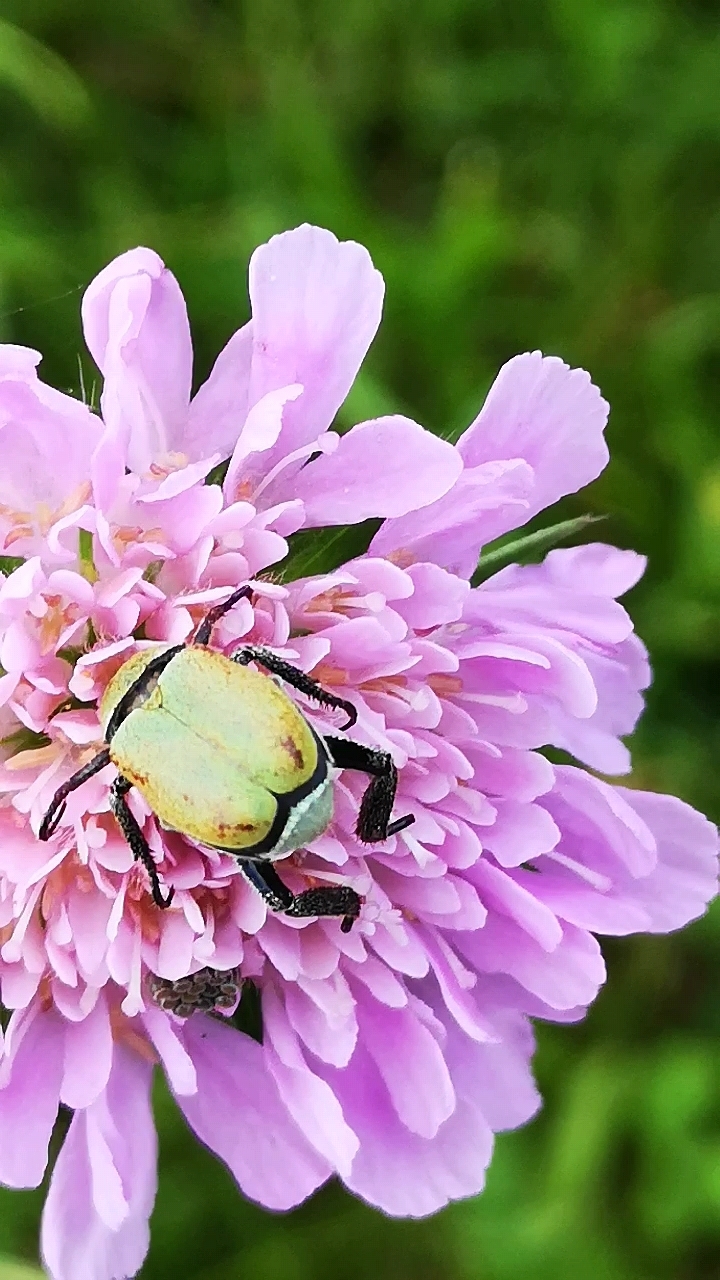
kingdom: Animalia
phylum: Arthropoda
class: Insecta
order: Coleoptera
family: Scarabaeidae
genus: Hoplia
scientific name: Hoplia argentea
